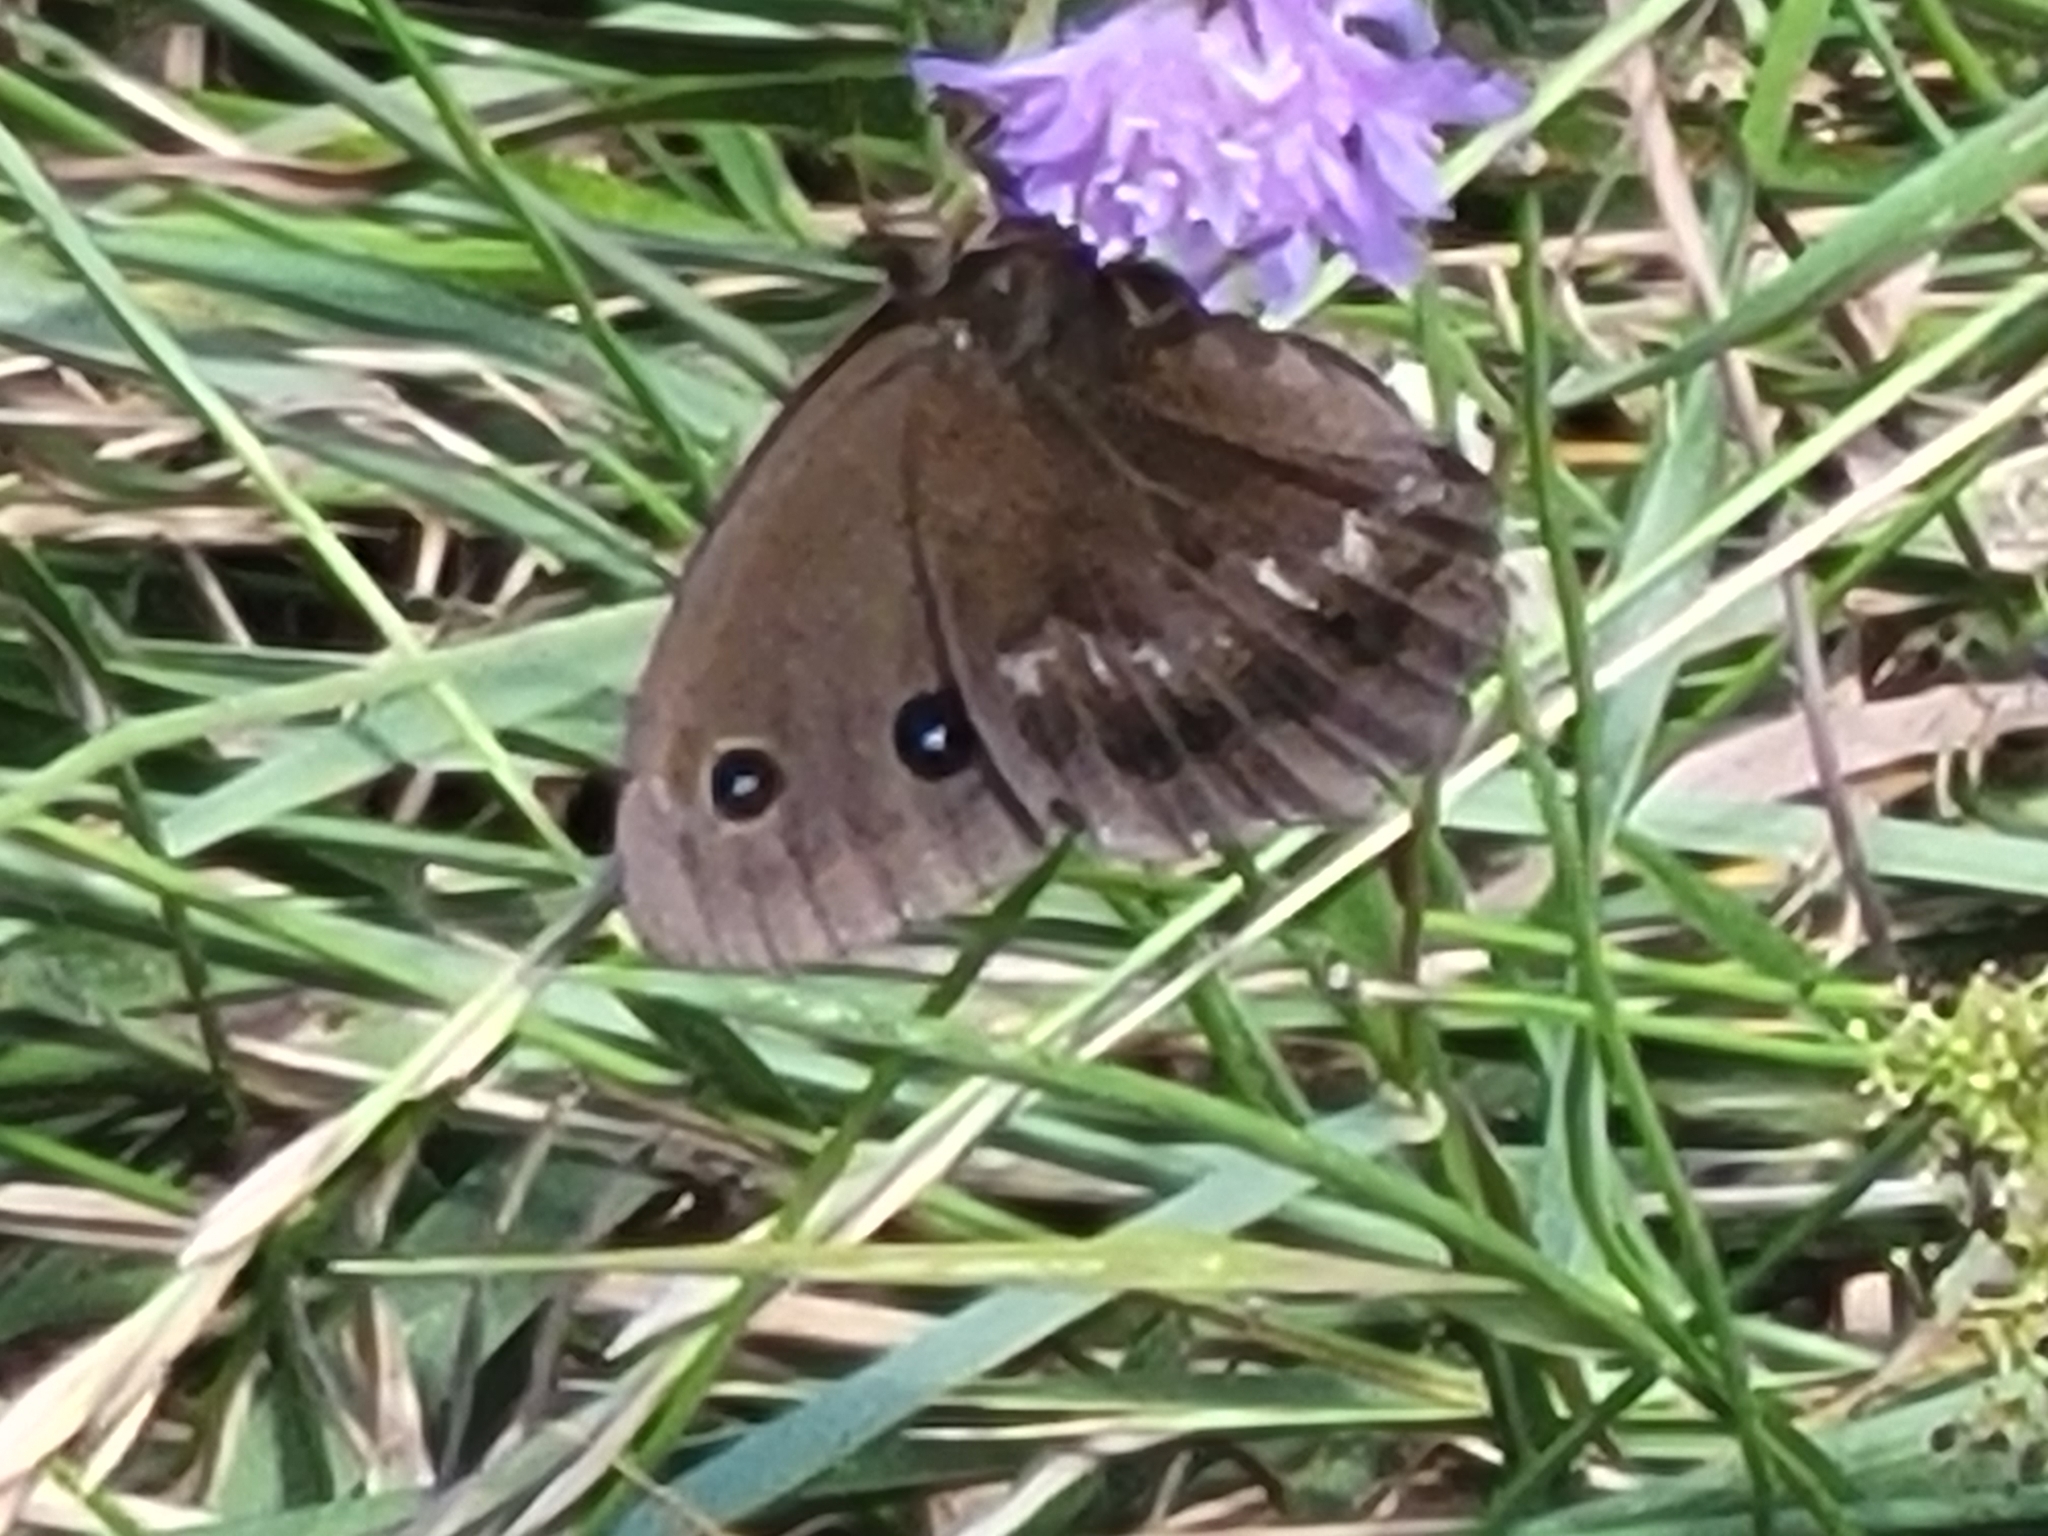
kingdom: Animalia
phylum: Arthropoda
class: Insecta
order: Lepidoptera
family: Nymphalidae
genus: Minois
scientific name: Minois dryas
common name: Dryad
